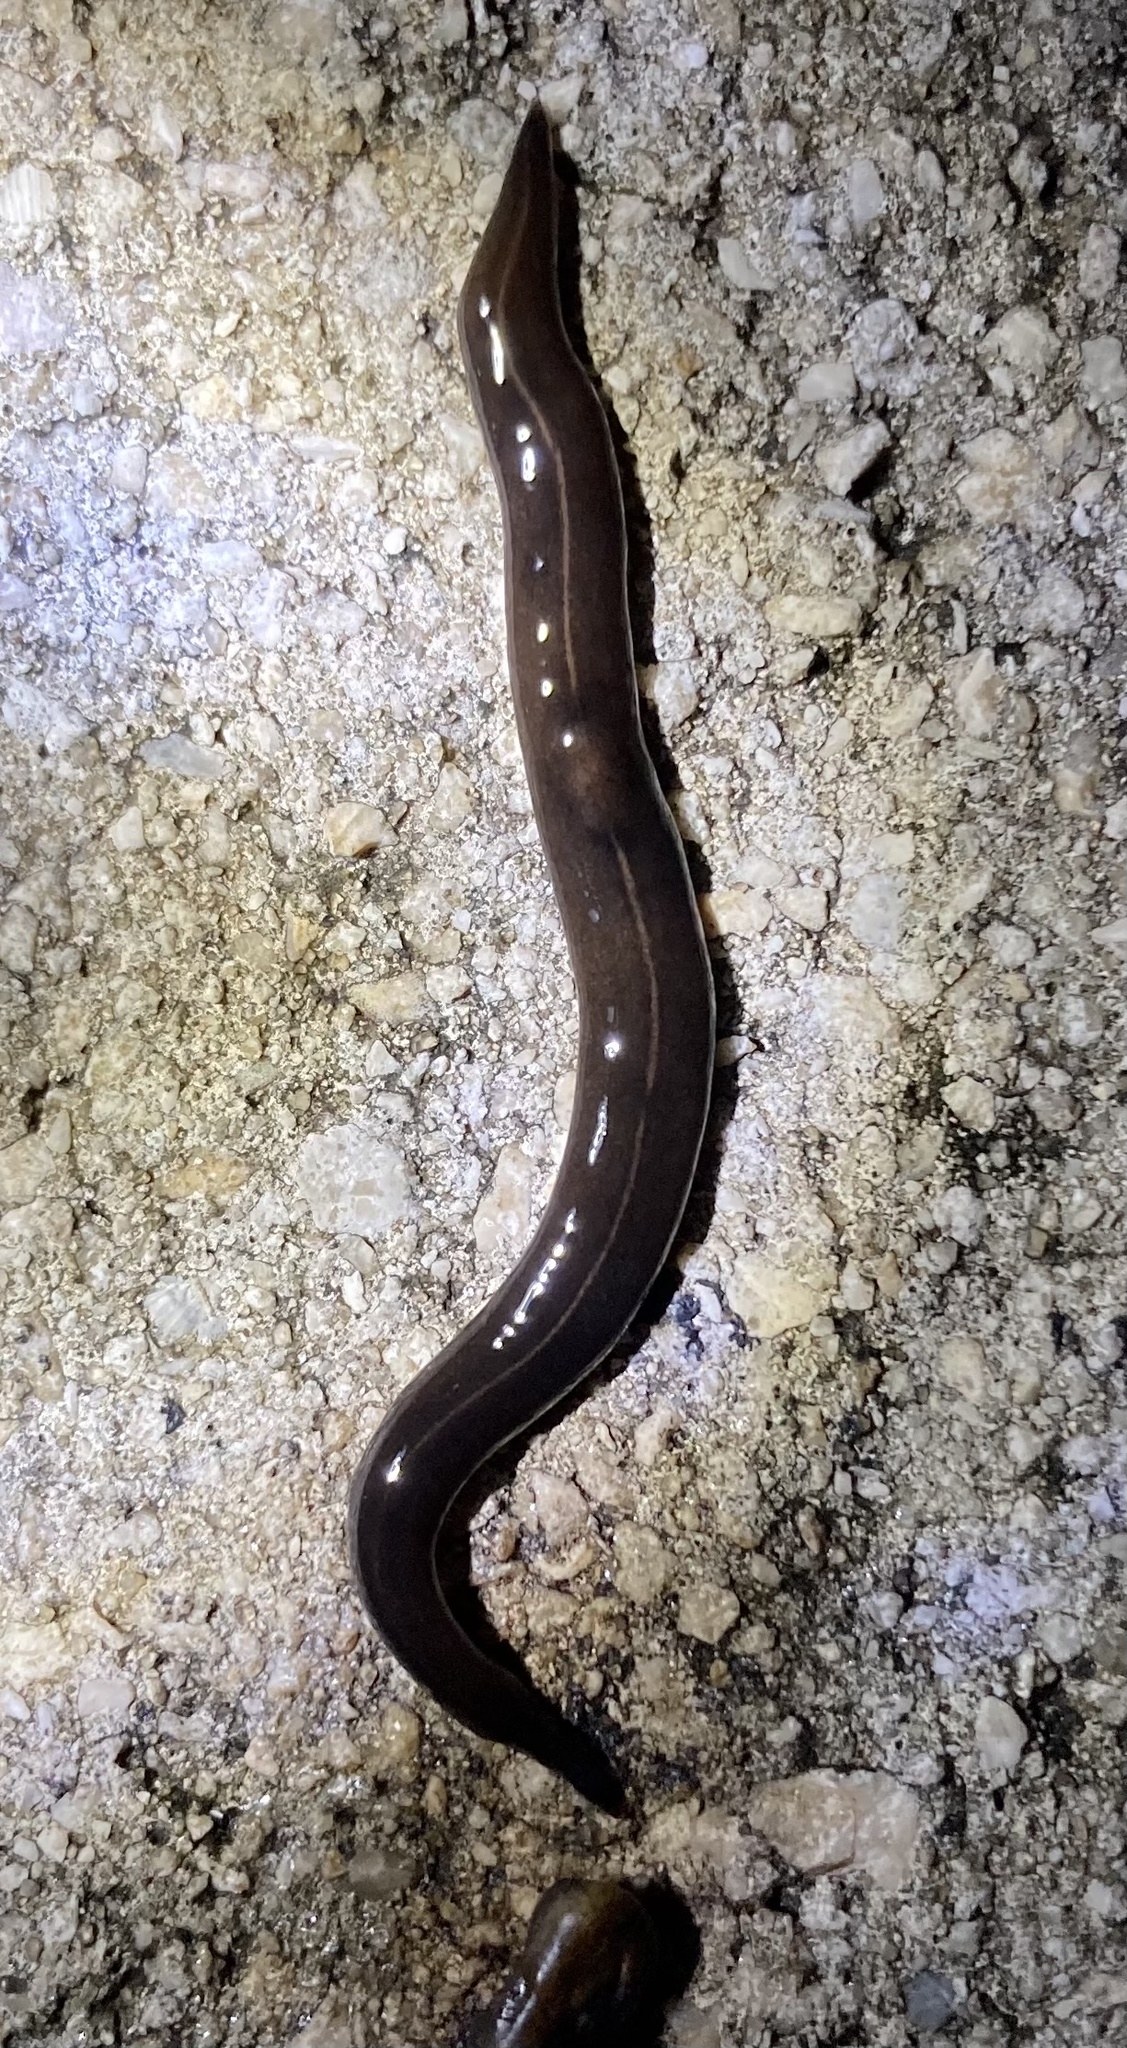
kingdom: Animalia
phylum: Platyhelminthes
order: Tricladida
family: Geoplanidae
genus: Platydemus
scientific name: Platydemus manokwari
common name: New guinea flatworm
